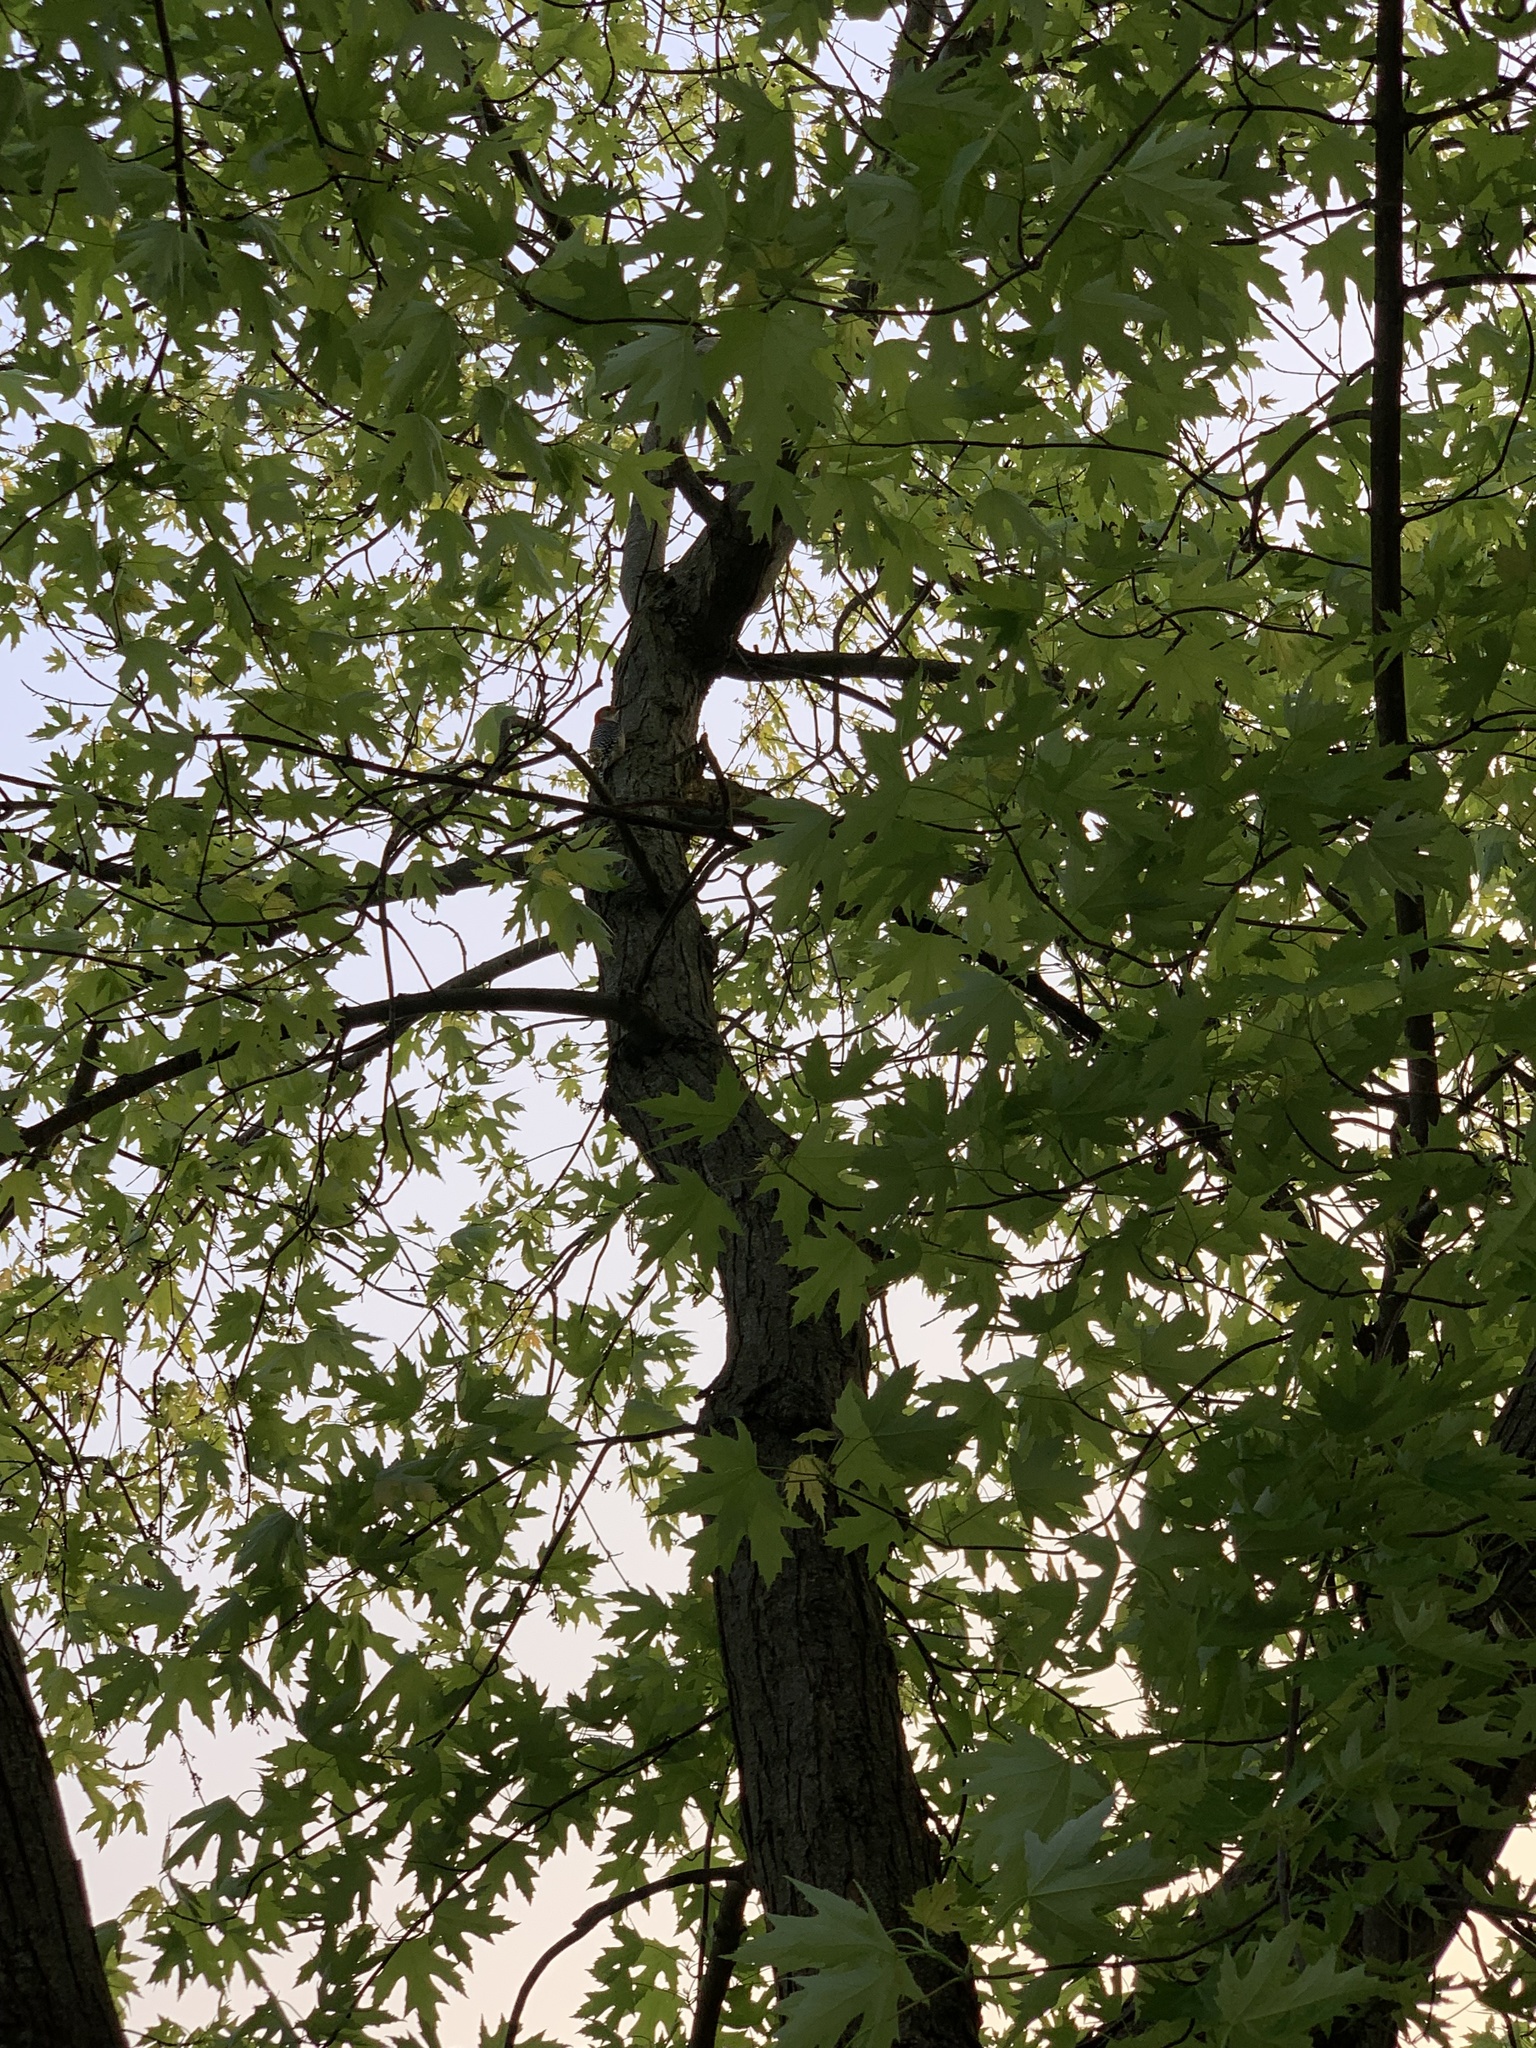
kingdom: Animalia
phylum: Chordata
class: Aves
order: Piciformes
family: Picidae
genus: Melanerpes
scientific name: Melanerpes carolinus
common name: Red-bellied woodpecker
